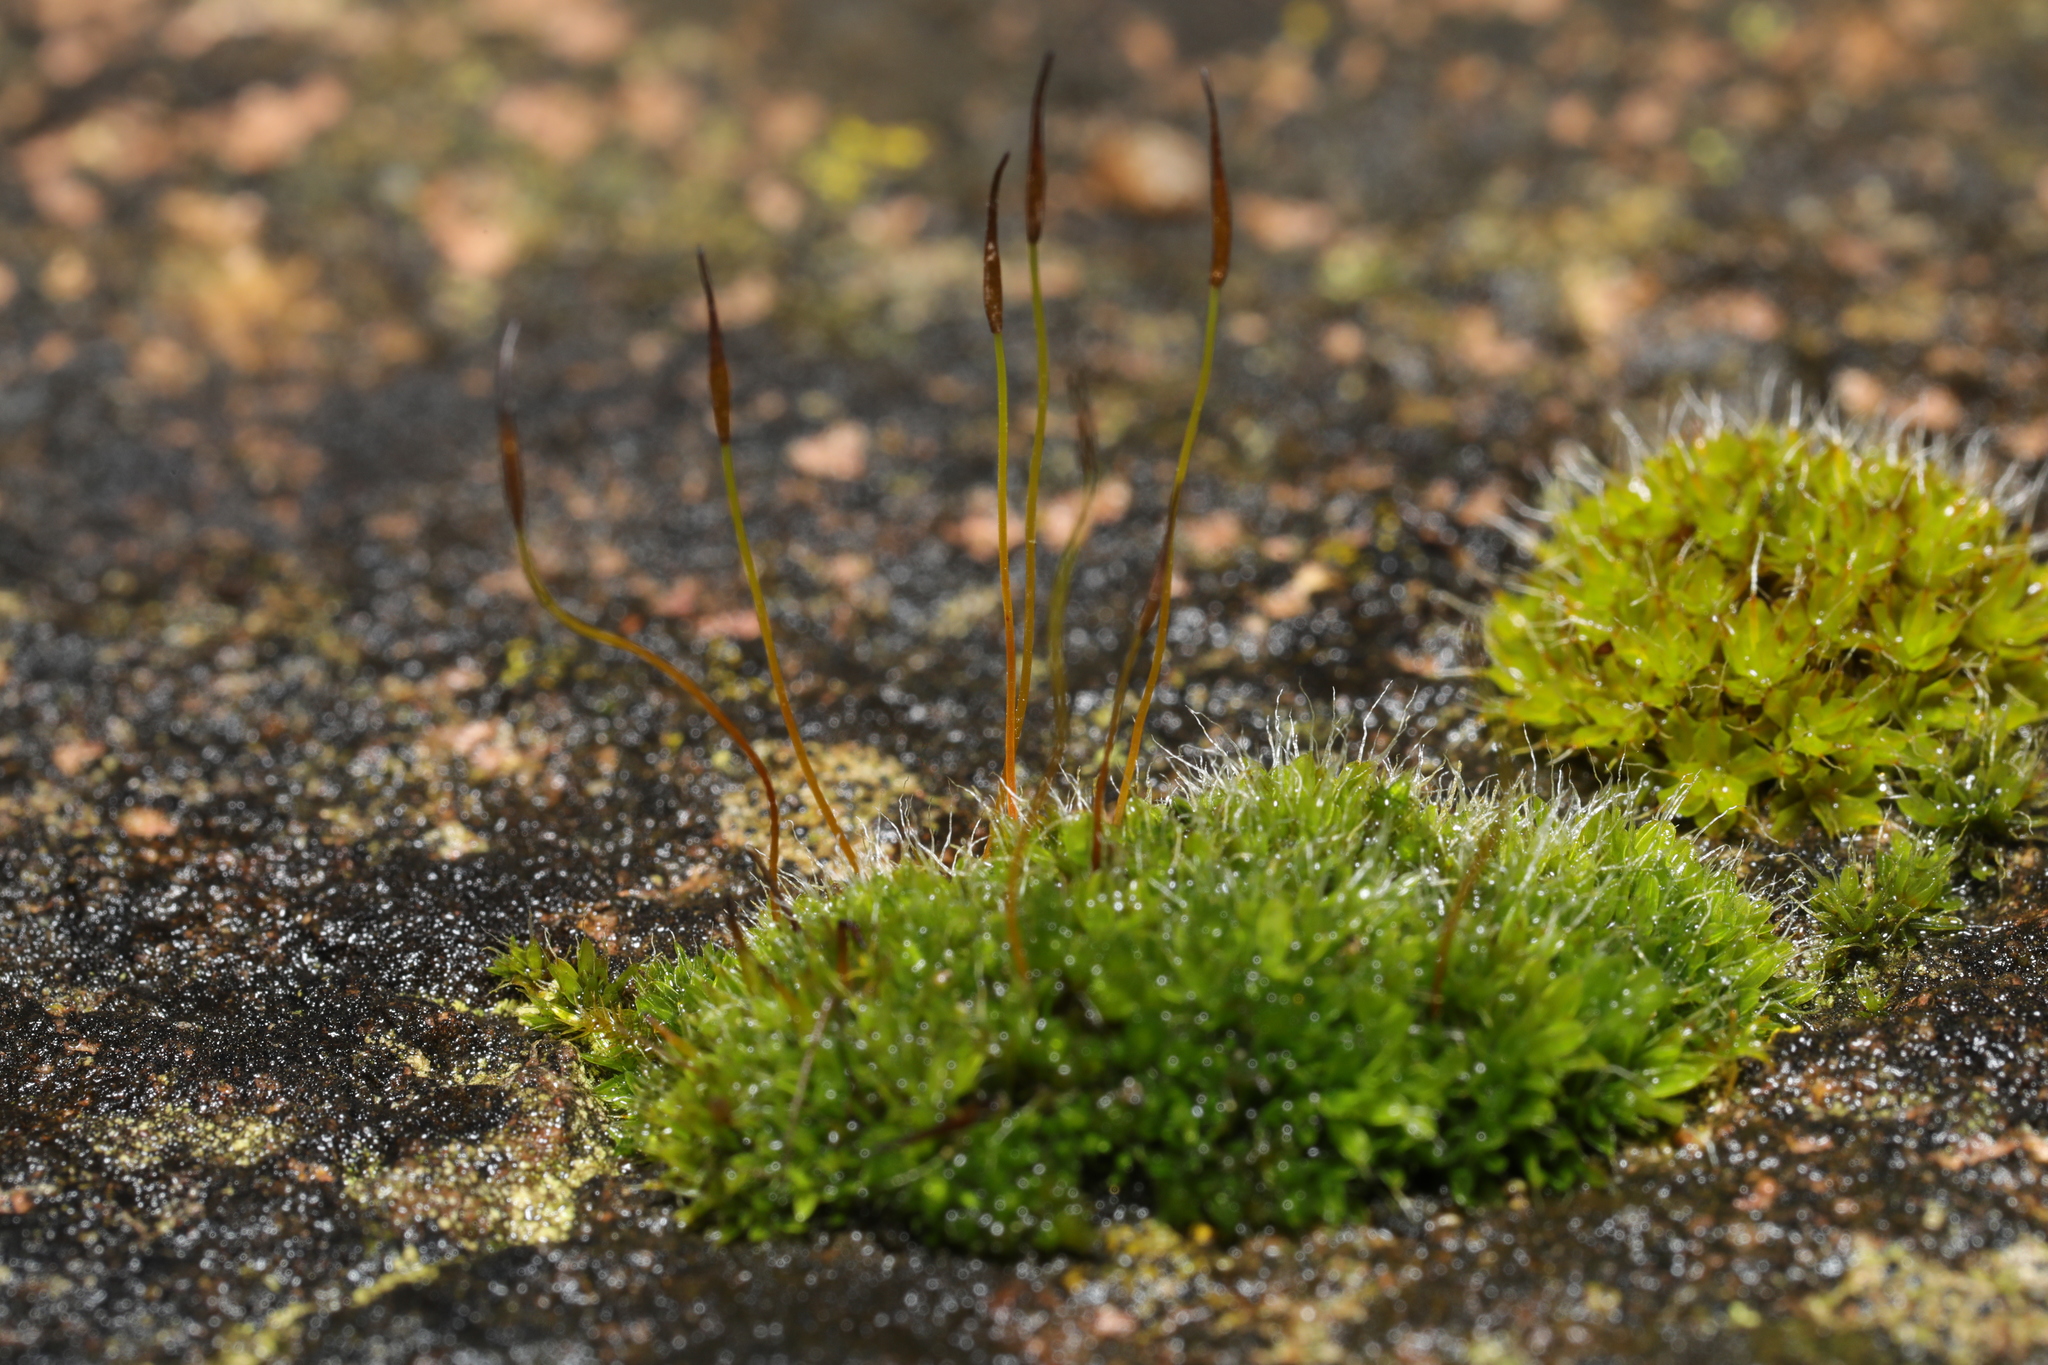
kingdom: Plantae
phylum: Bryophyta
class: Bryopsida
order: Pottiales
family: Pottiaceae
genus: Tortula
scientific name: Tortula muralis
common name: Wall screw-moss
